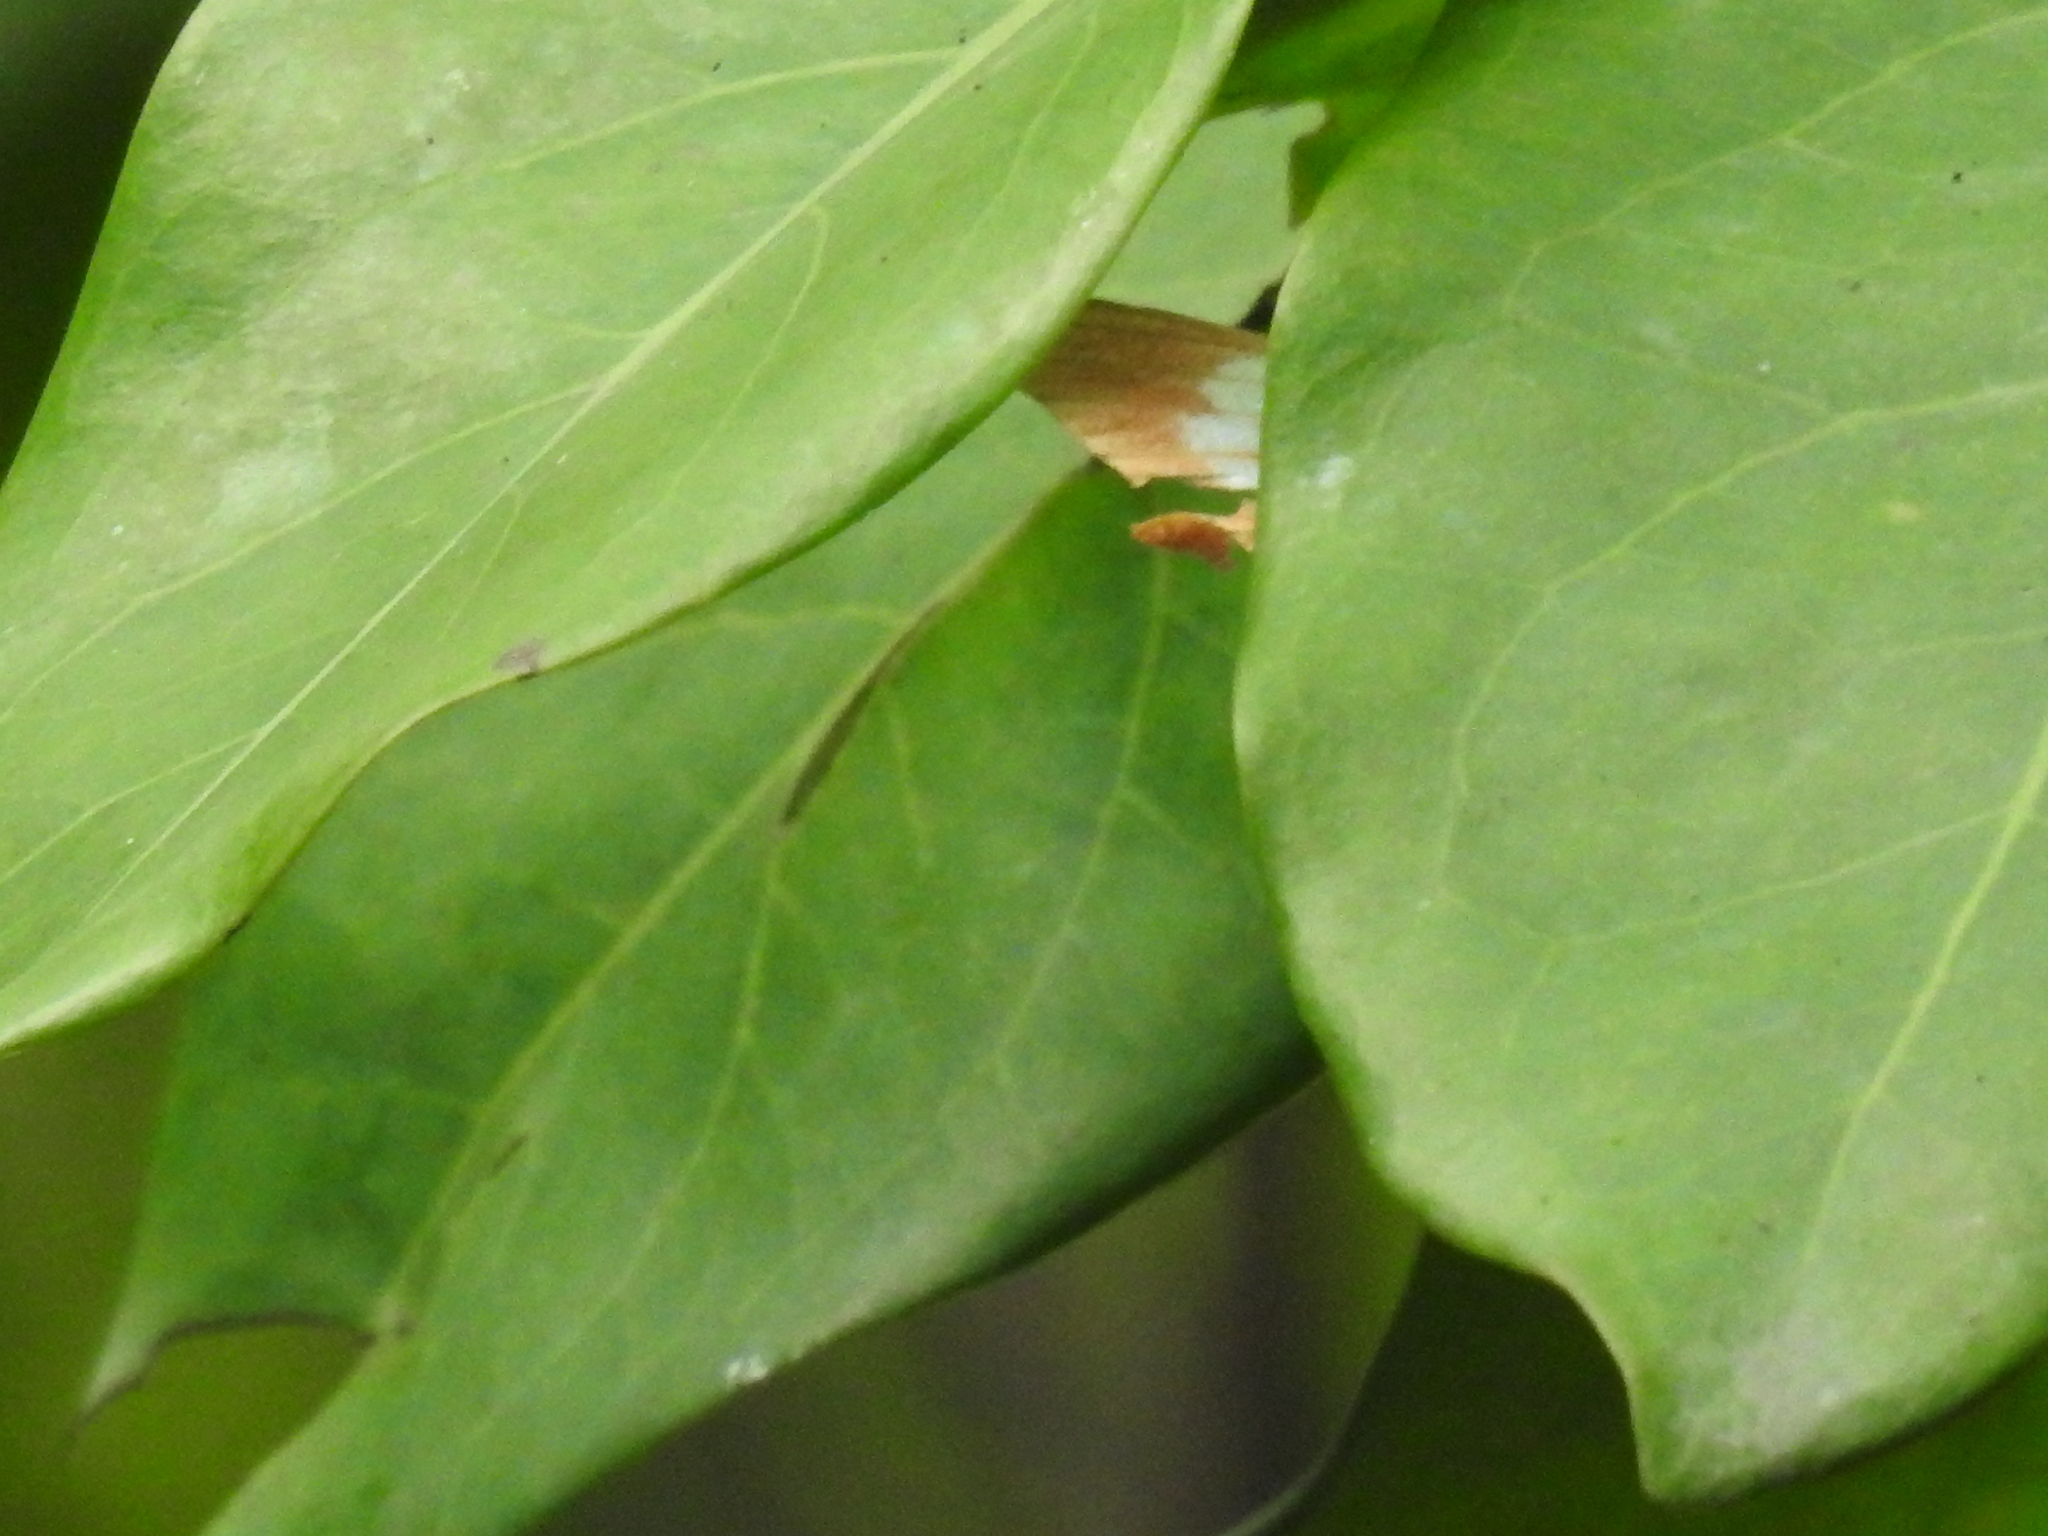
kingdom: Animalia
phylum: Arthropoda
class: Insecta
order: Lepidoptera
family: Pieridae
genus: Hebomoia
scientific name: Hebomoia glaucippe
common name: Great orange tip
